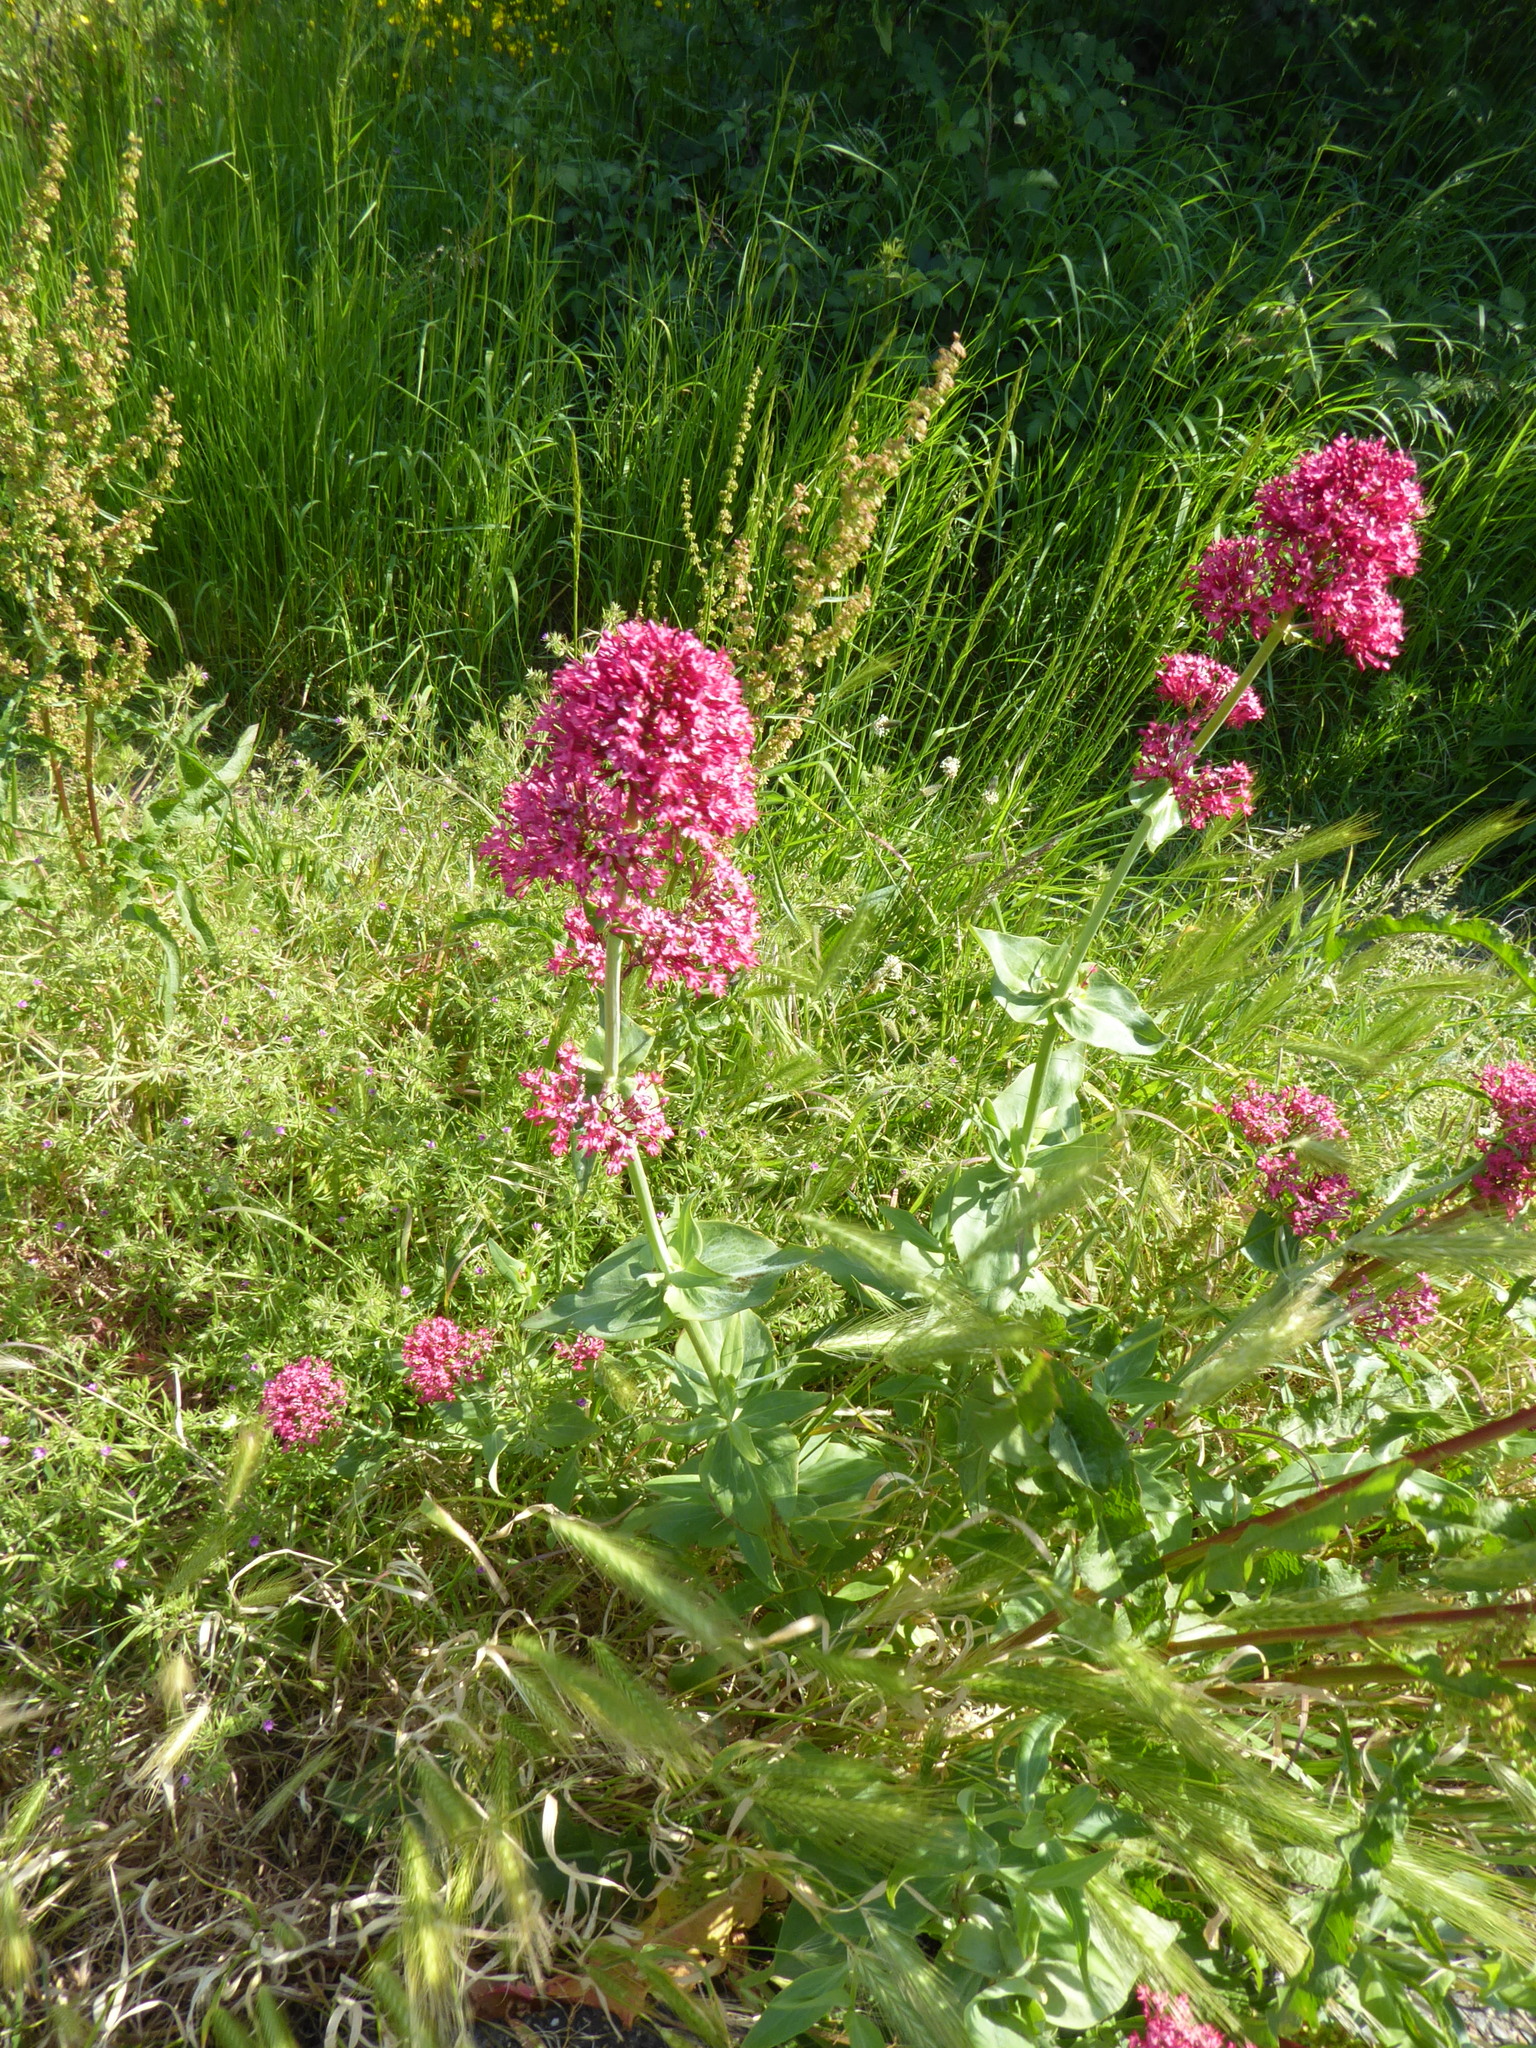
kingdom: Plantae
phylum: Tracheophyta
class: Magnoliopsida
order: Dipsacales
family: Caprifoliaceae
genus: Centranthus
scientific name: Centranthus ruber
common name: Red valerian
